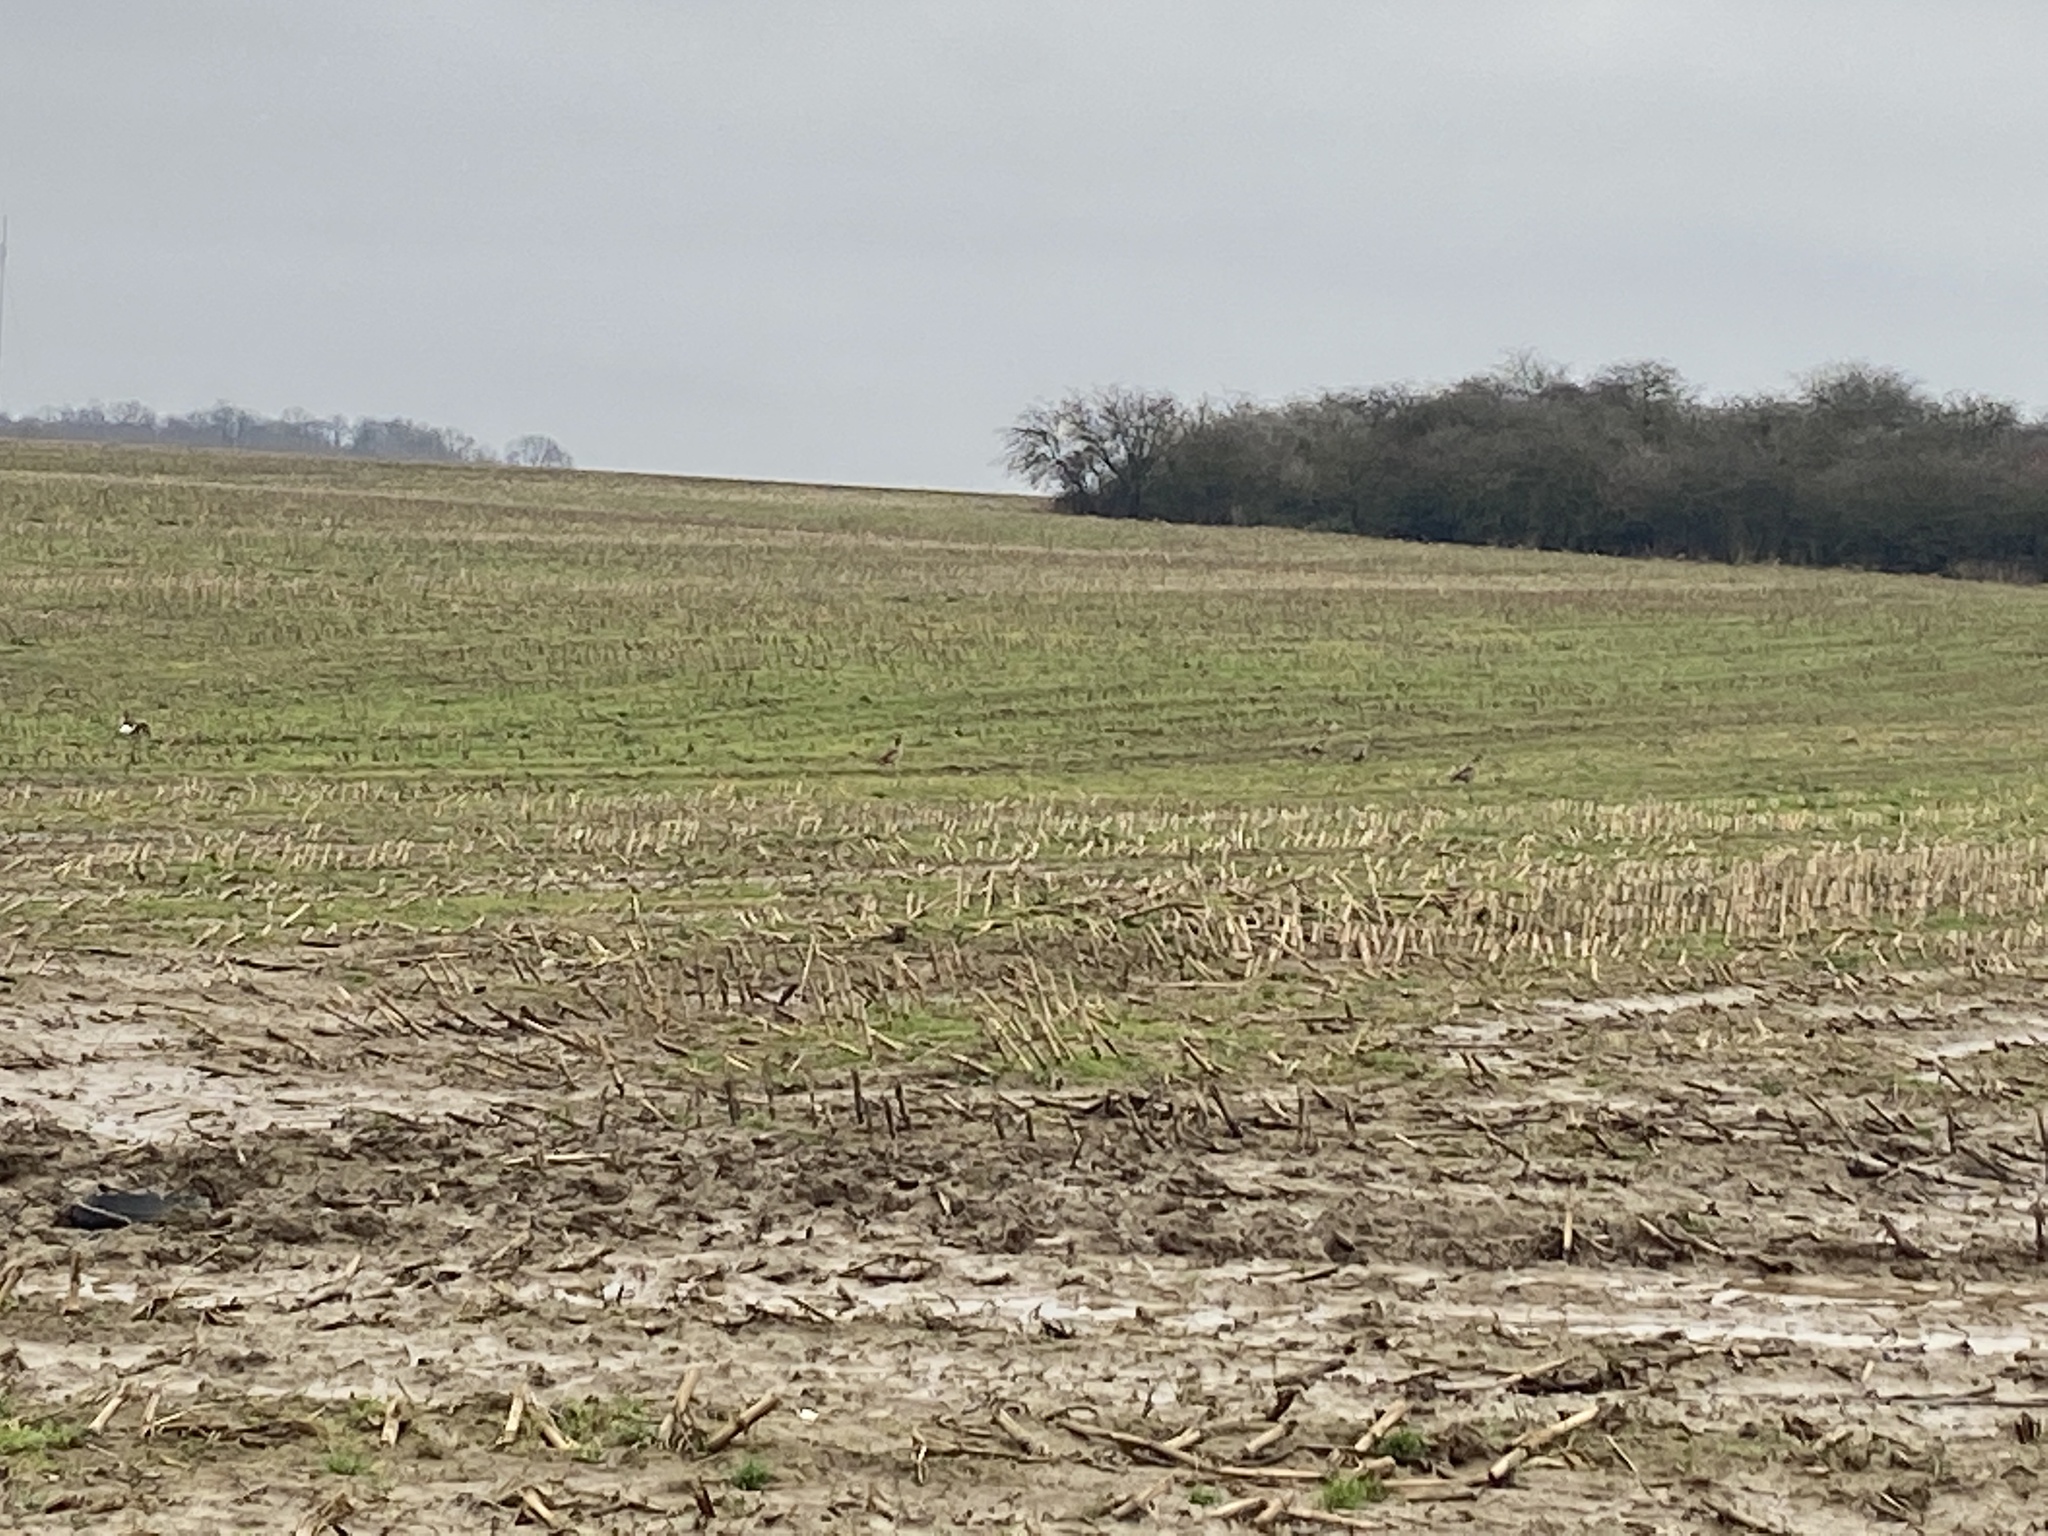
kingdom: Animalia
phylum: Chordata
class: Aves
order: Anseriformes
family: Anatidae
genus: Alopochen
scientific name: Alopochen aegyptiaca
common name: Egyptian goose
